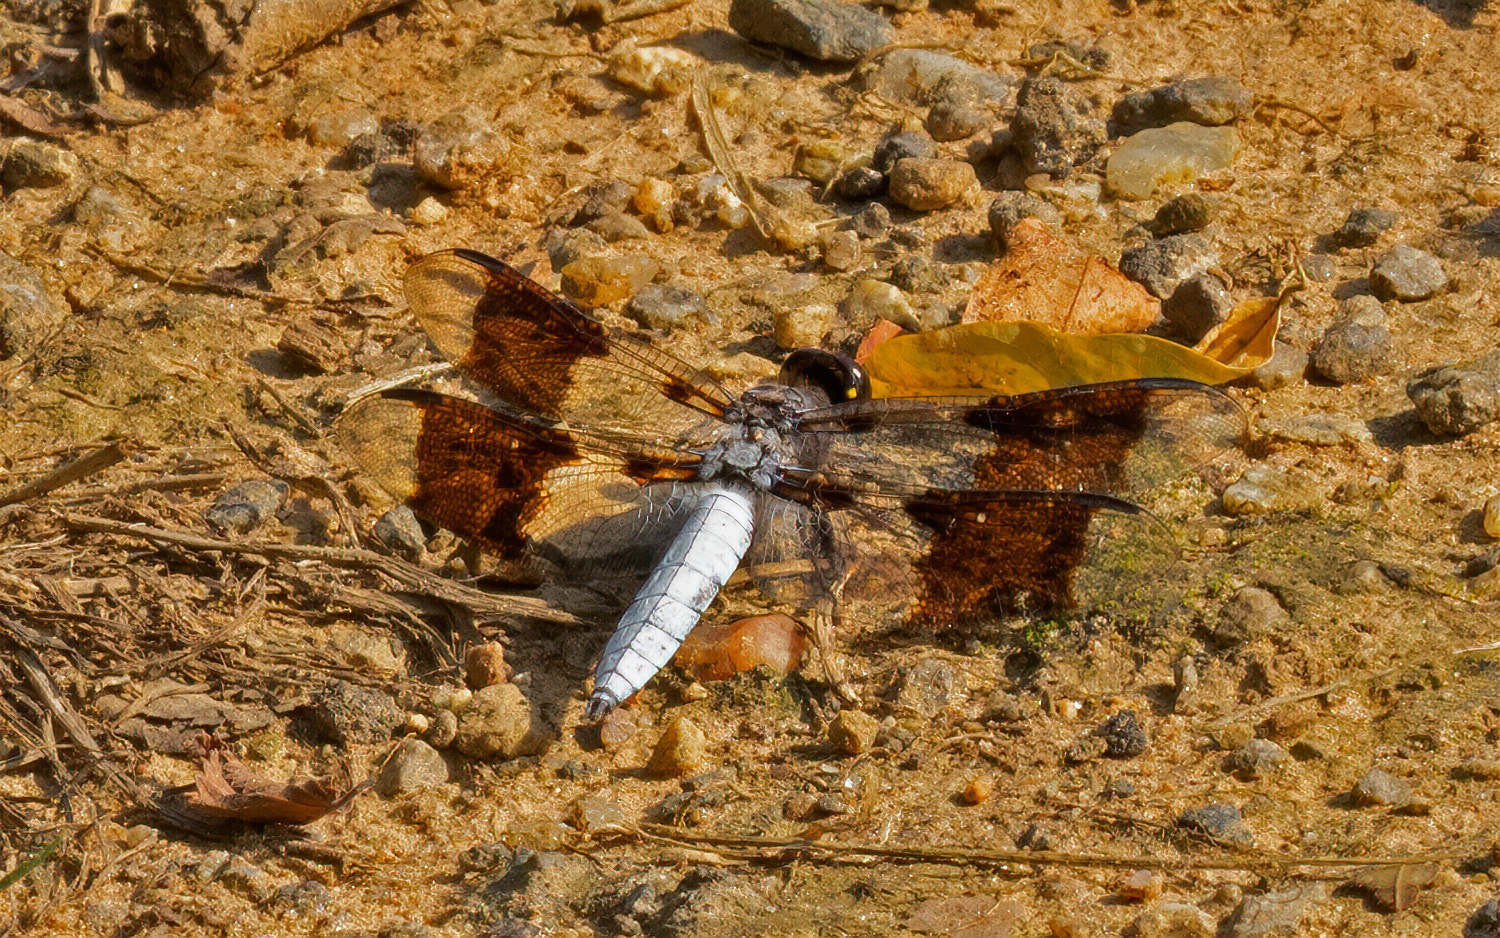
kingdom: Animalia
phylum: Arthropoda
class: Insecta
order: Odonata
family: Libellulidae
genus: Plathemis
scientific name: Plathemis lydia
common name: Common whitetail
